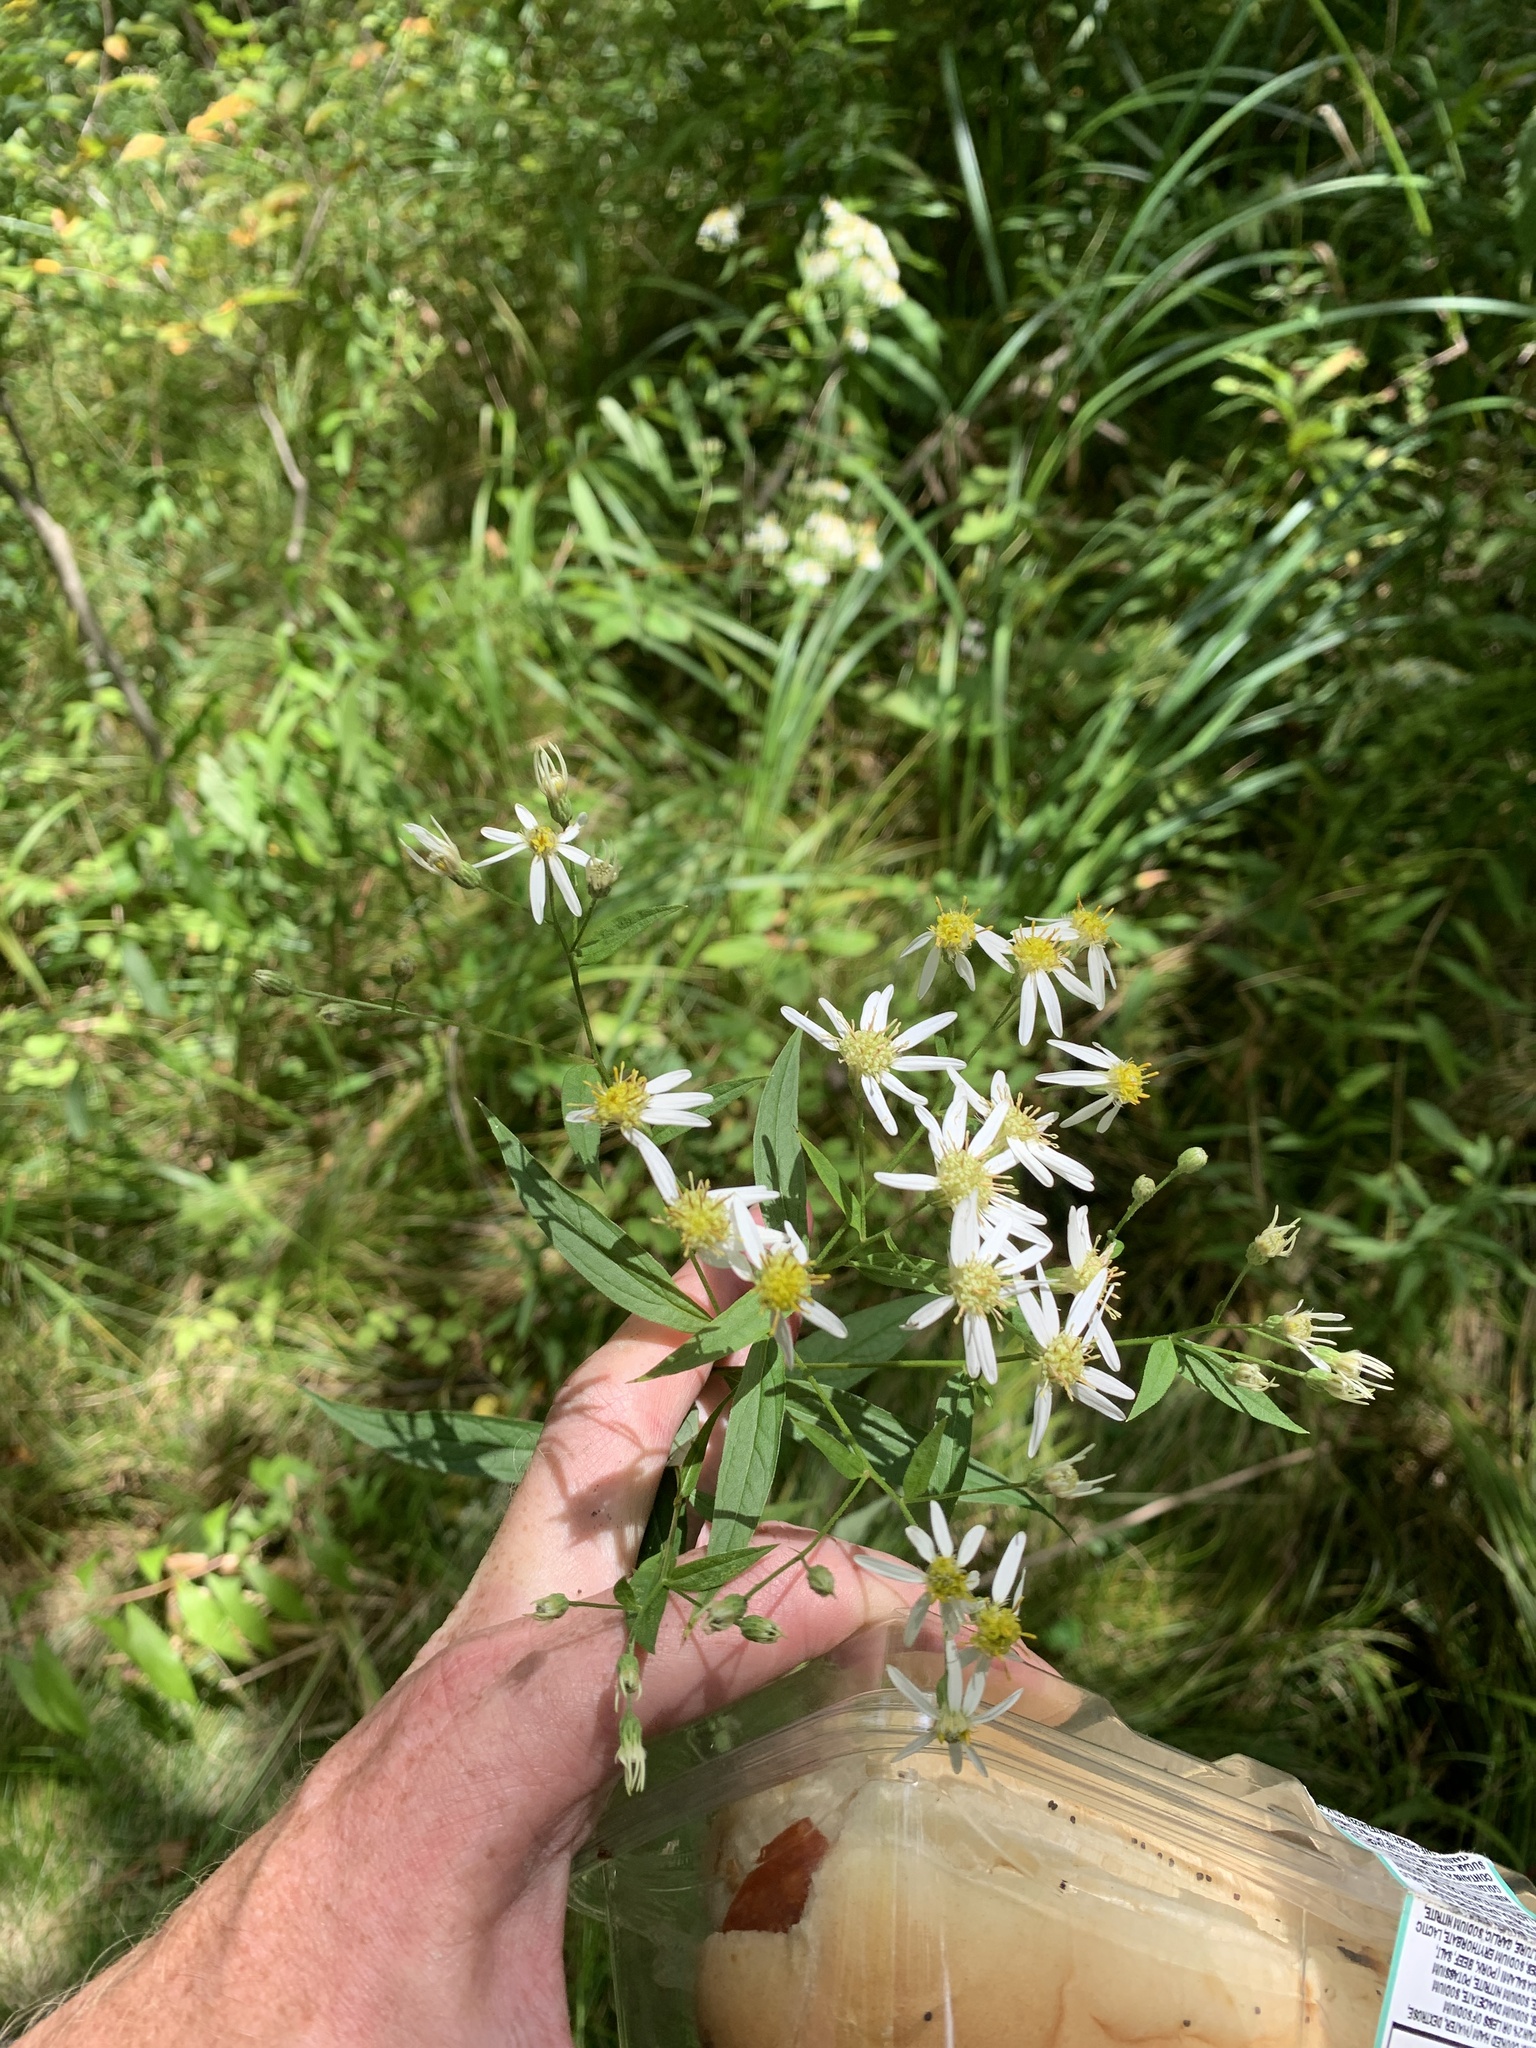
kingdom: Plantae
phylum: Tracheophyta
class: Magnoliopsida
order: Asterales
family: Asteraceae
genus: Doellingeria
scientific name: Doellingeria umbellata
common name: Flat-top white aster
